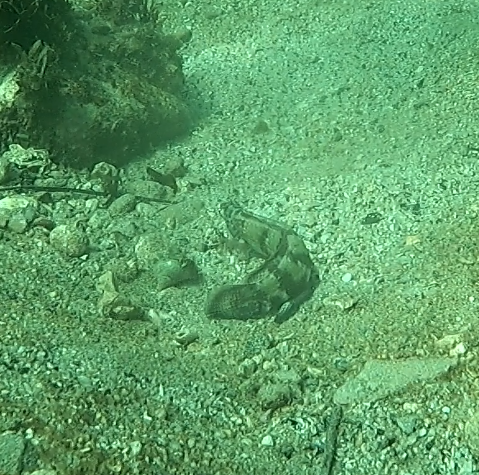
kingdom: Animalia
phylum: Chordata
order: Perciformes
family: Labridae
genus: Eupetrichthys
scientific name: Eupetrichthys angustipes
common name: Snake-skin wrasse
